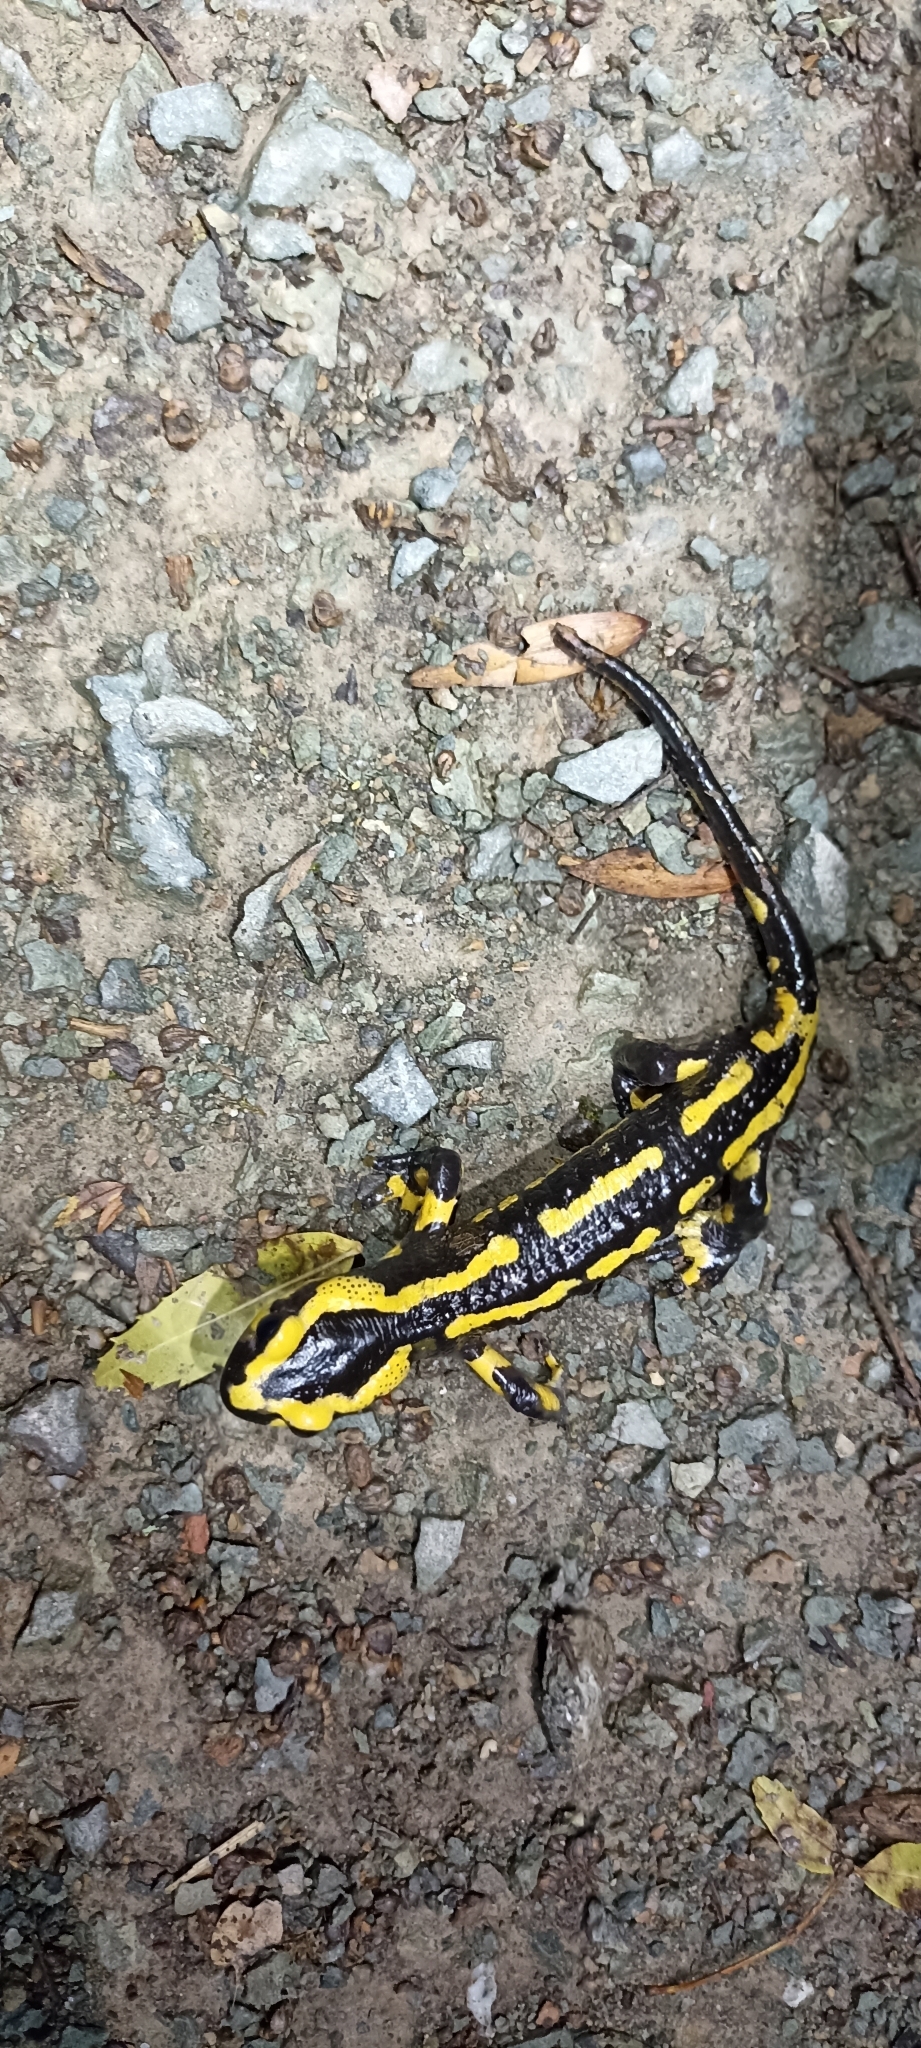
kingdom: Animalia
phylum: Chordata
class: Amphibia
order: Caudata
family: Salamandridae
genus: Salamandra
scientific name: Salamandra salamandra
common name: Fire salamander
